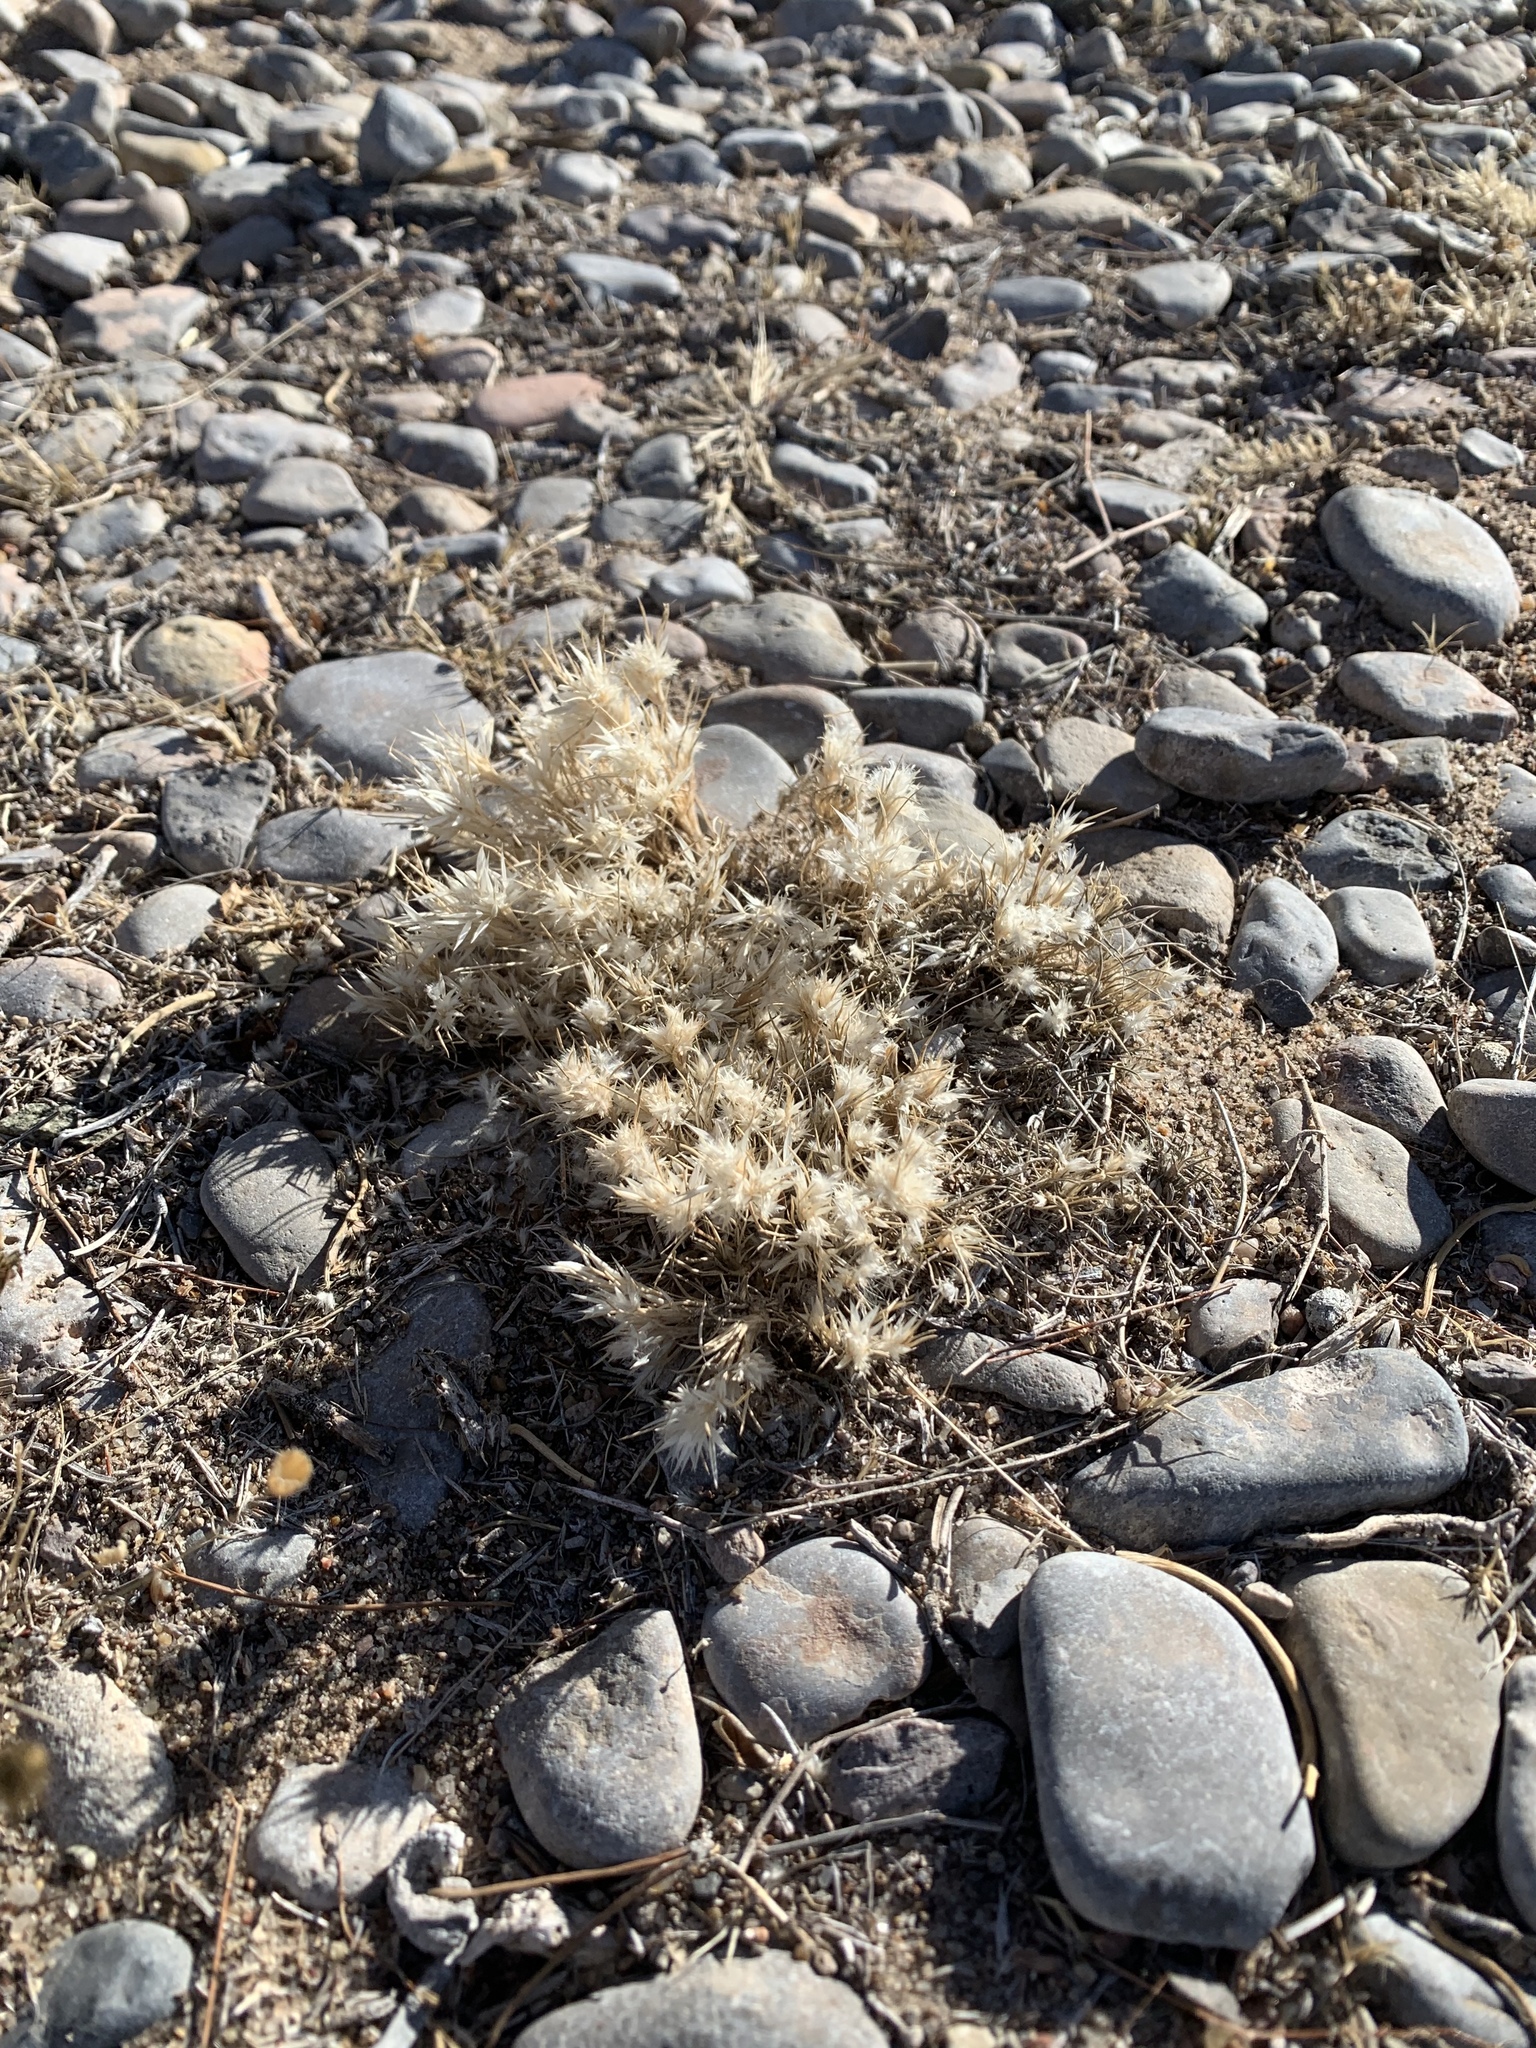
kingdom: Plantae
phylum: Tracheophyta
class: Liliopsida
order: Poales
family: Poaceae
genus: Dasyochloa
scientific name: Dasyochloa pulchella
